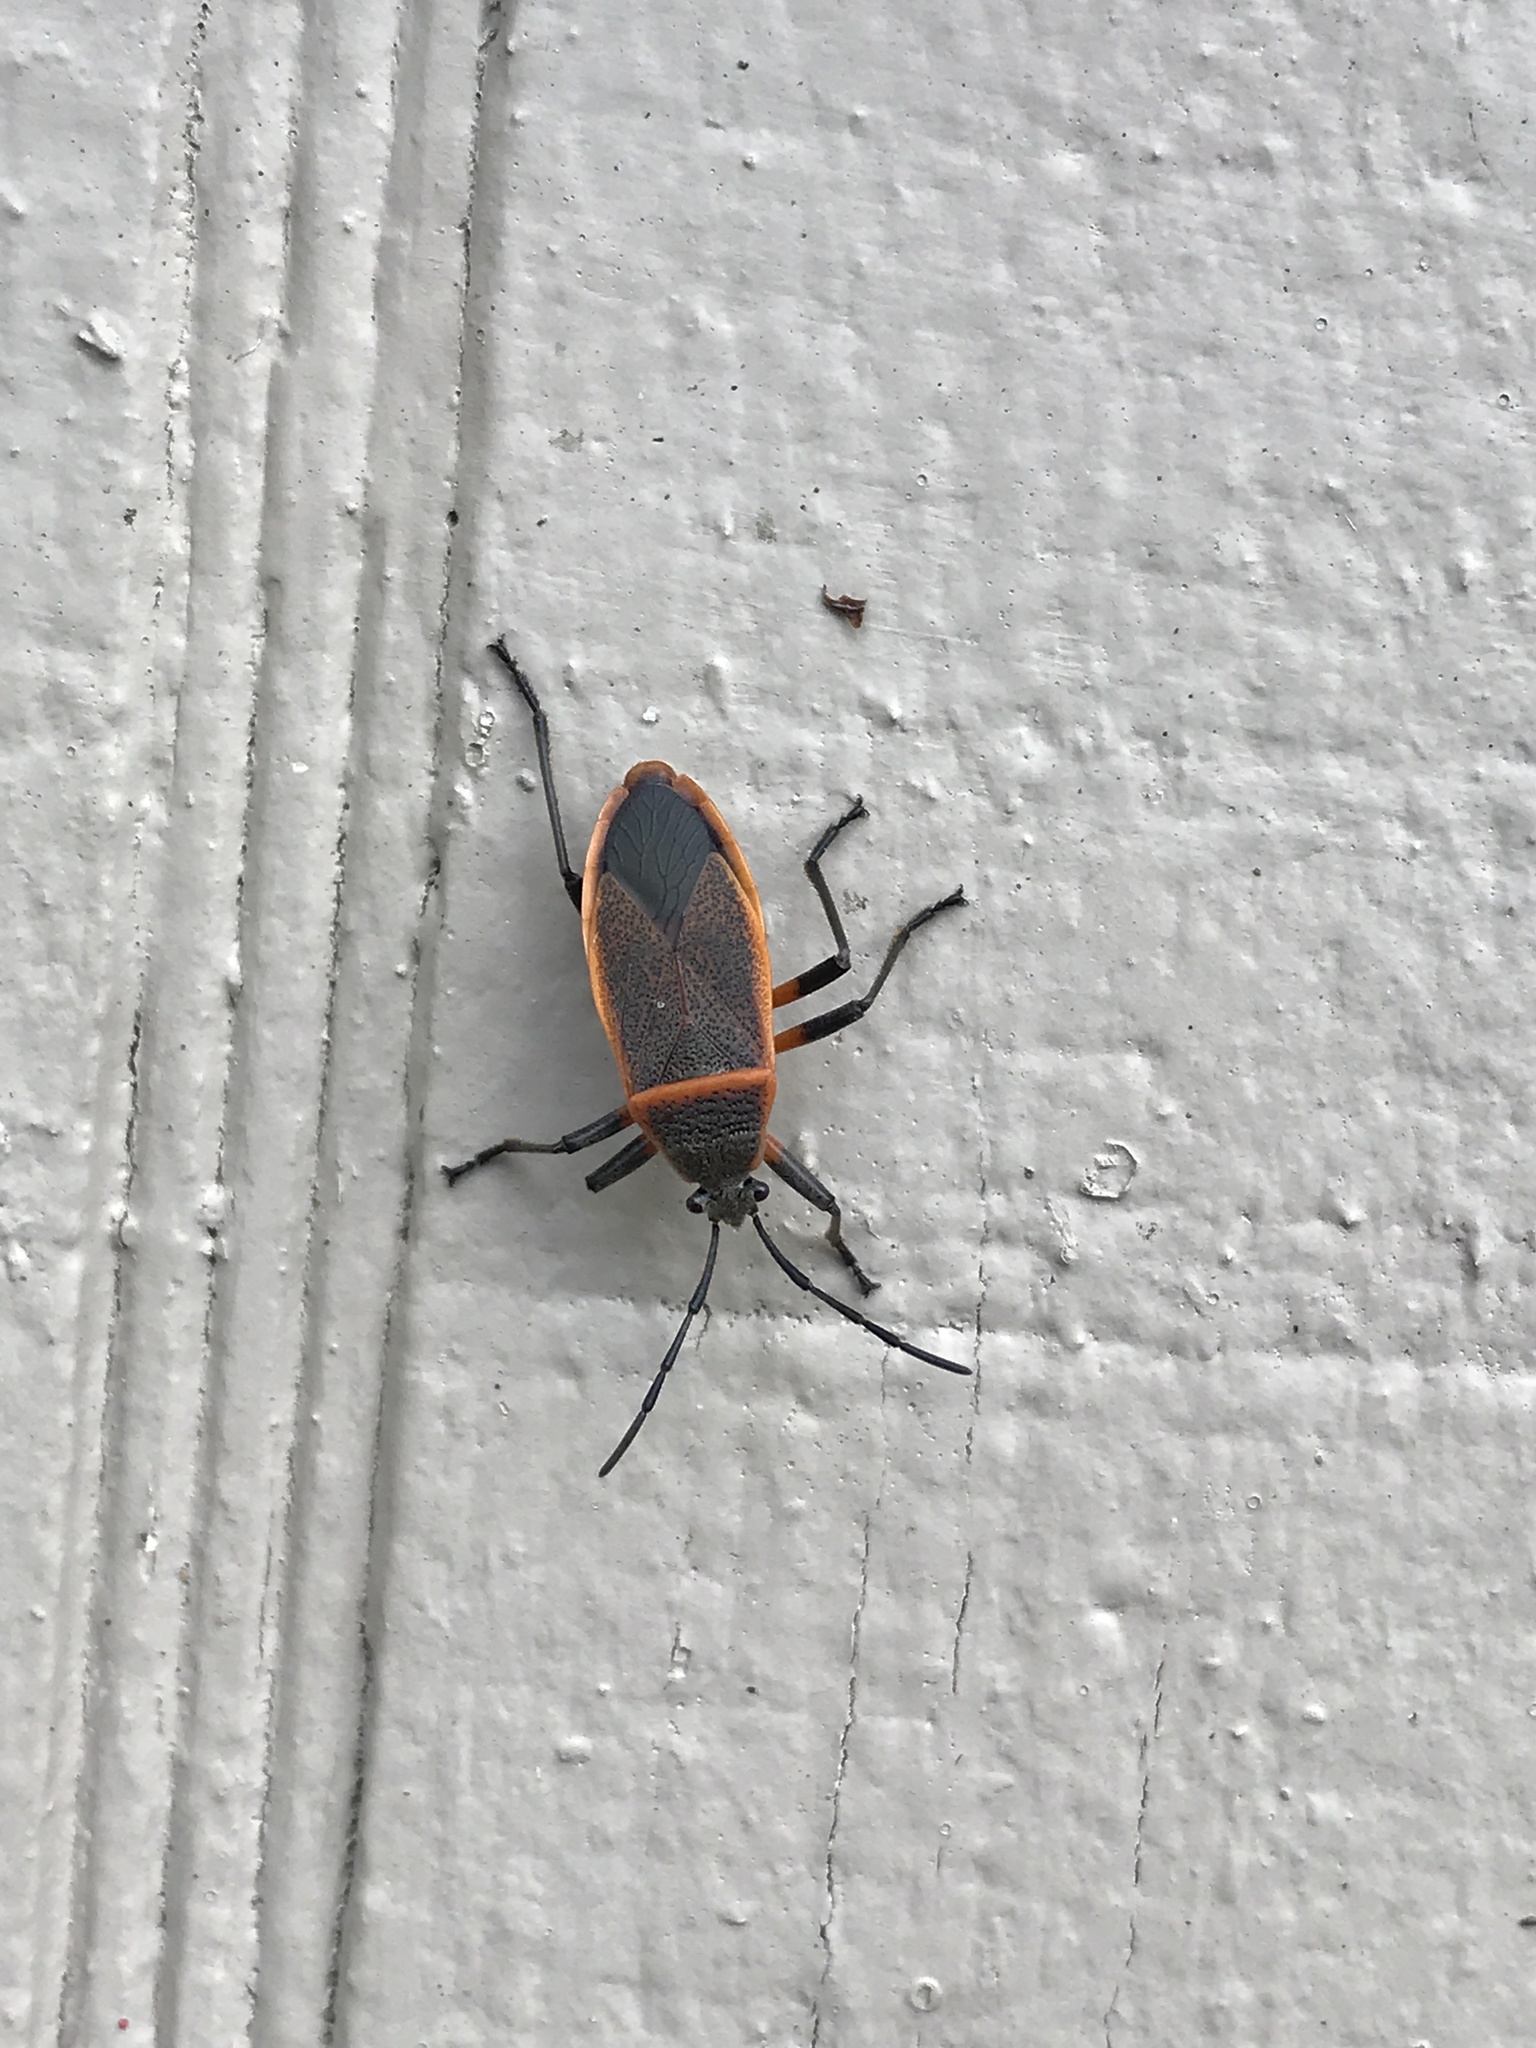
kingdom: Animalia
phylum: Arthropoda
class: Insecta
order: Hemiptera
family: Largidae
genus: Largus
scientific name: Largus succinctus
